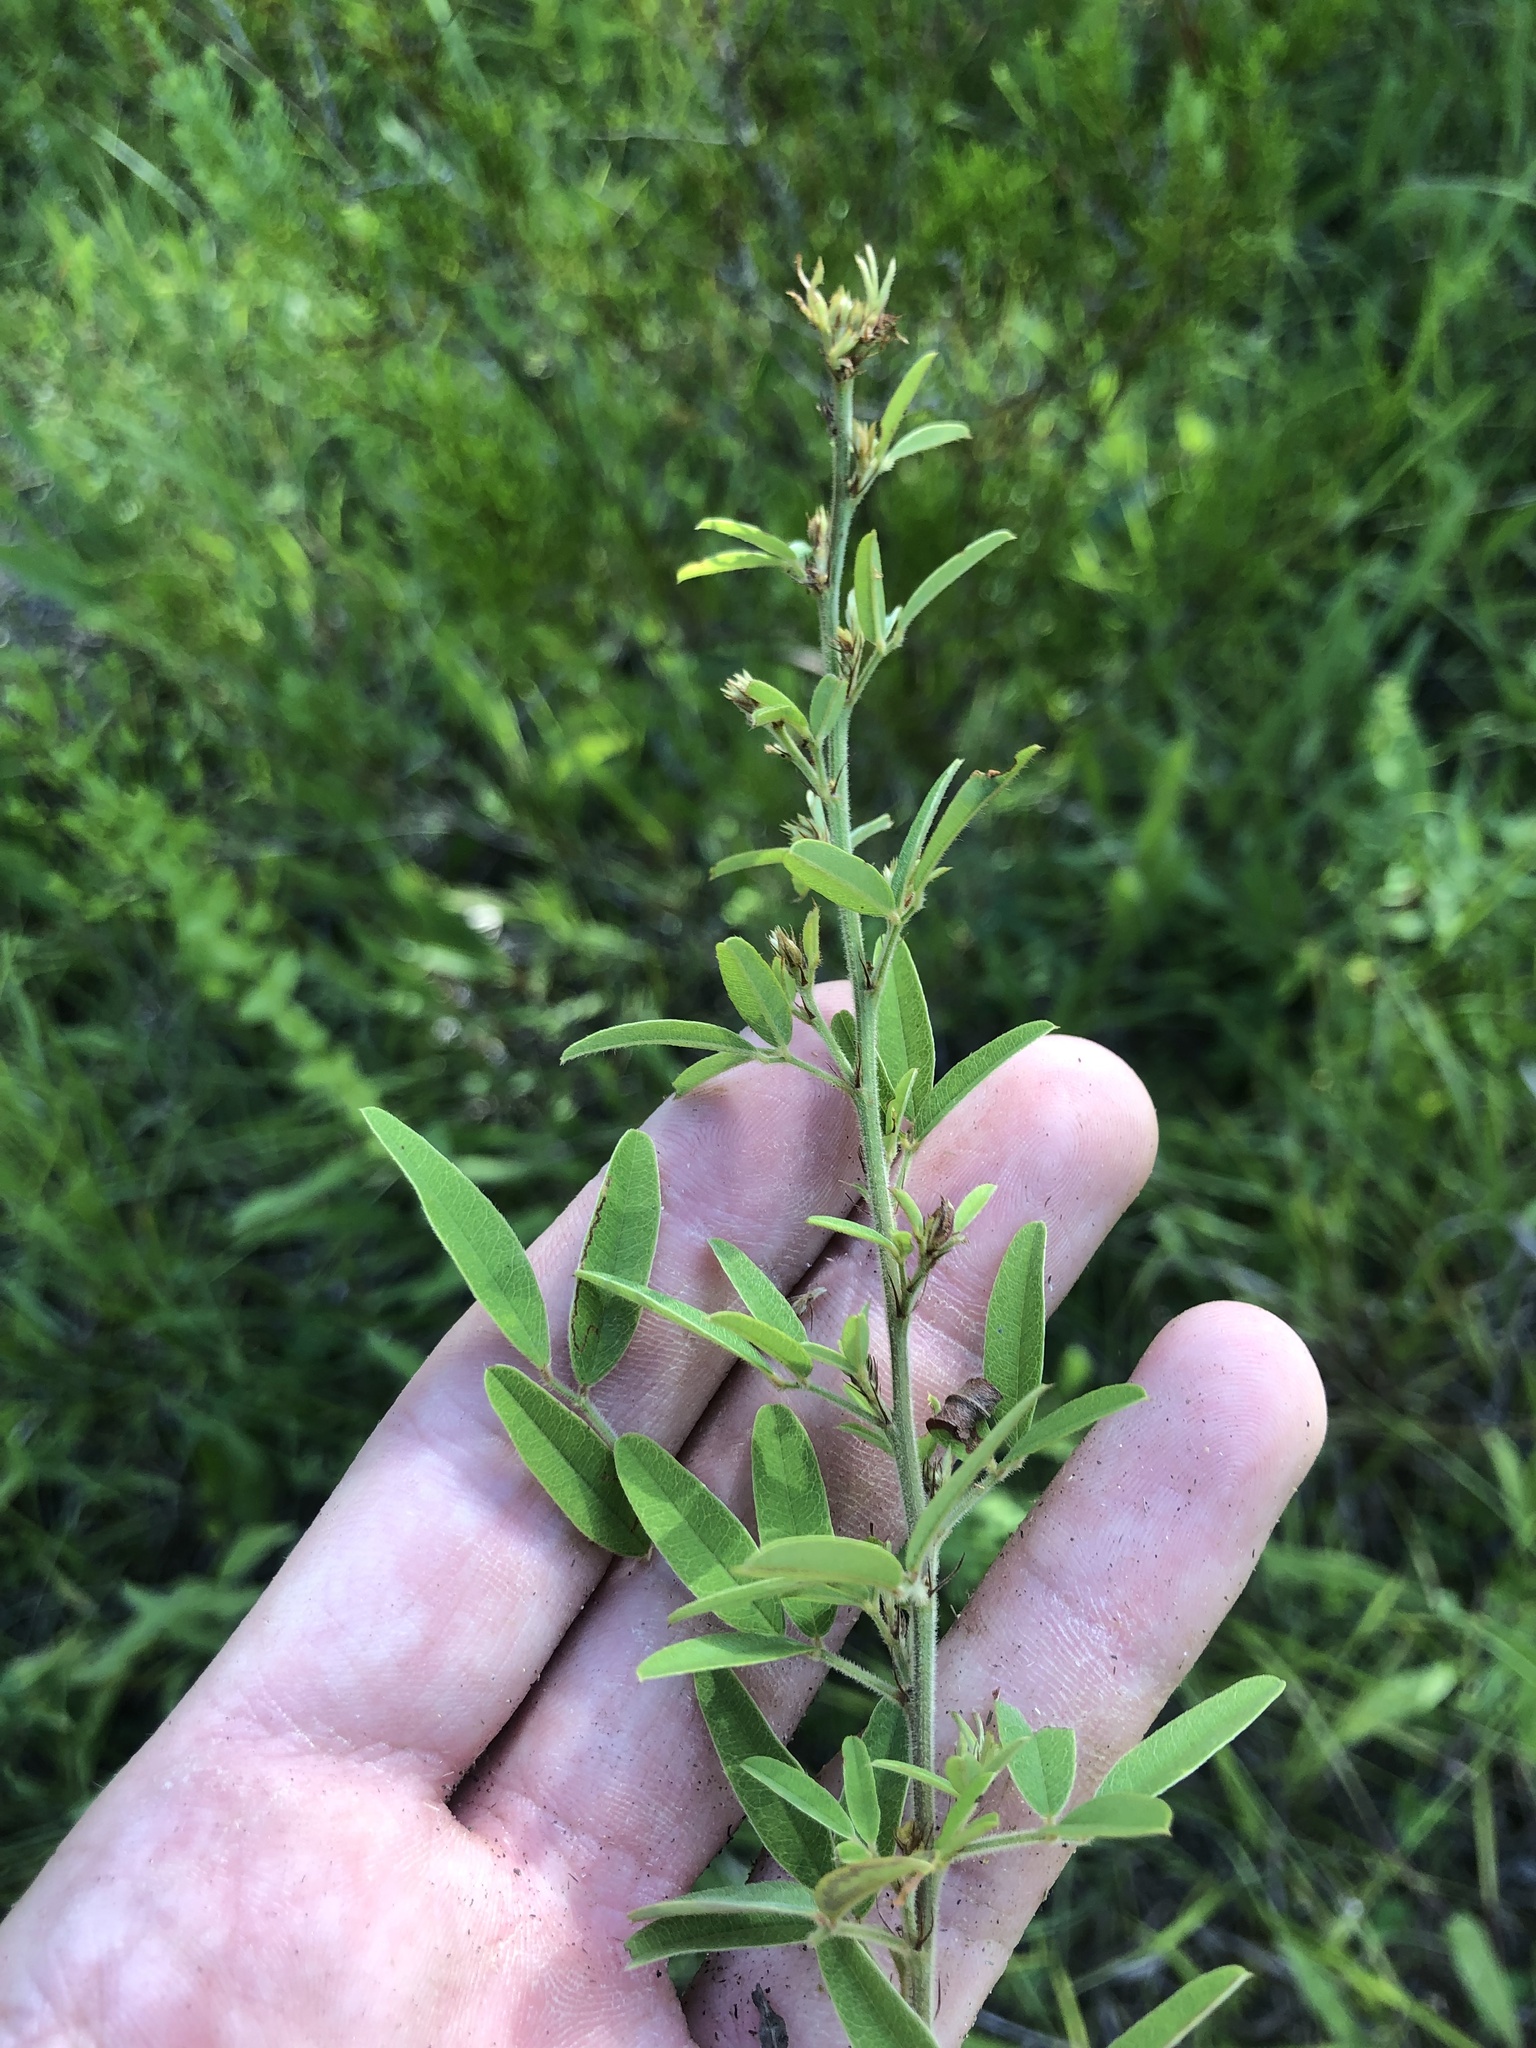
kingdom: Plantae
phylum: Tracheophyta
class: Magnoliopsida
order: Fabales
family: Fabaceae
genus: Lespedeza
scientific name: Lespedeza virginica
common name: Slender bush-clover
